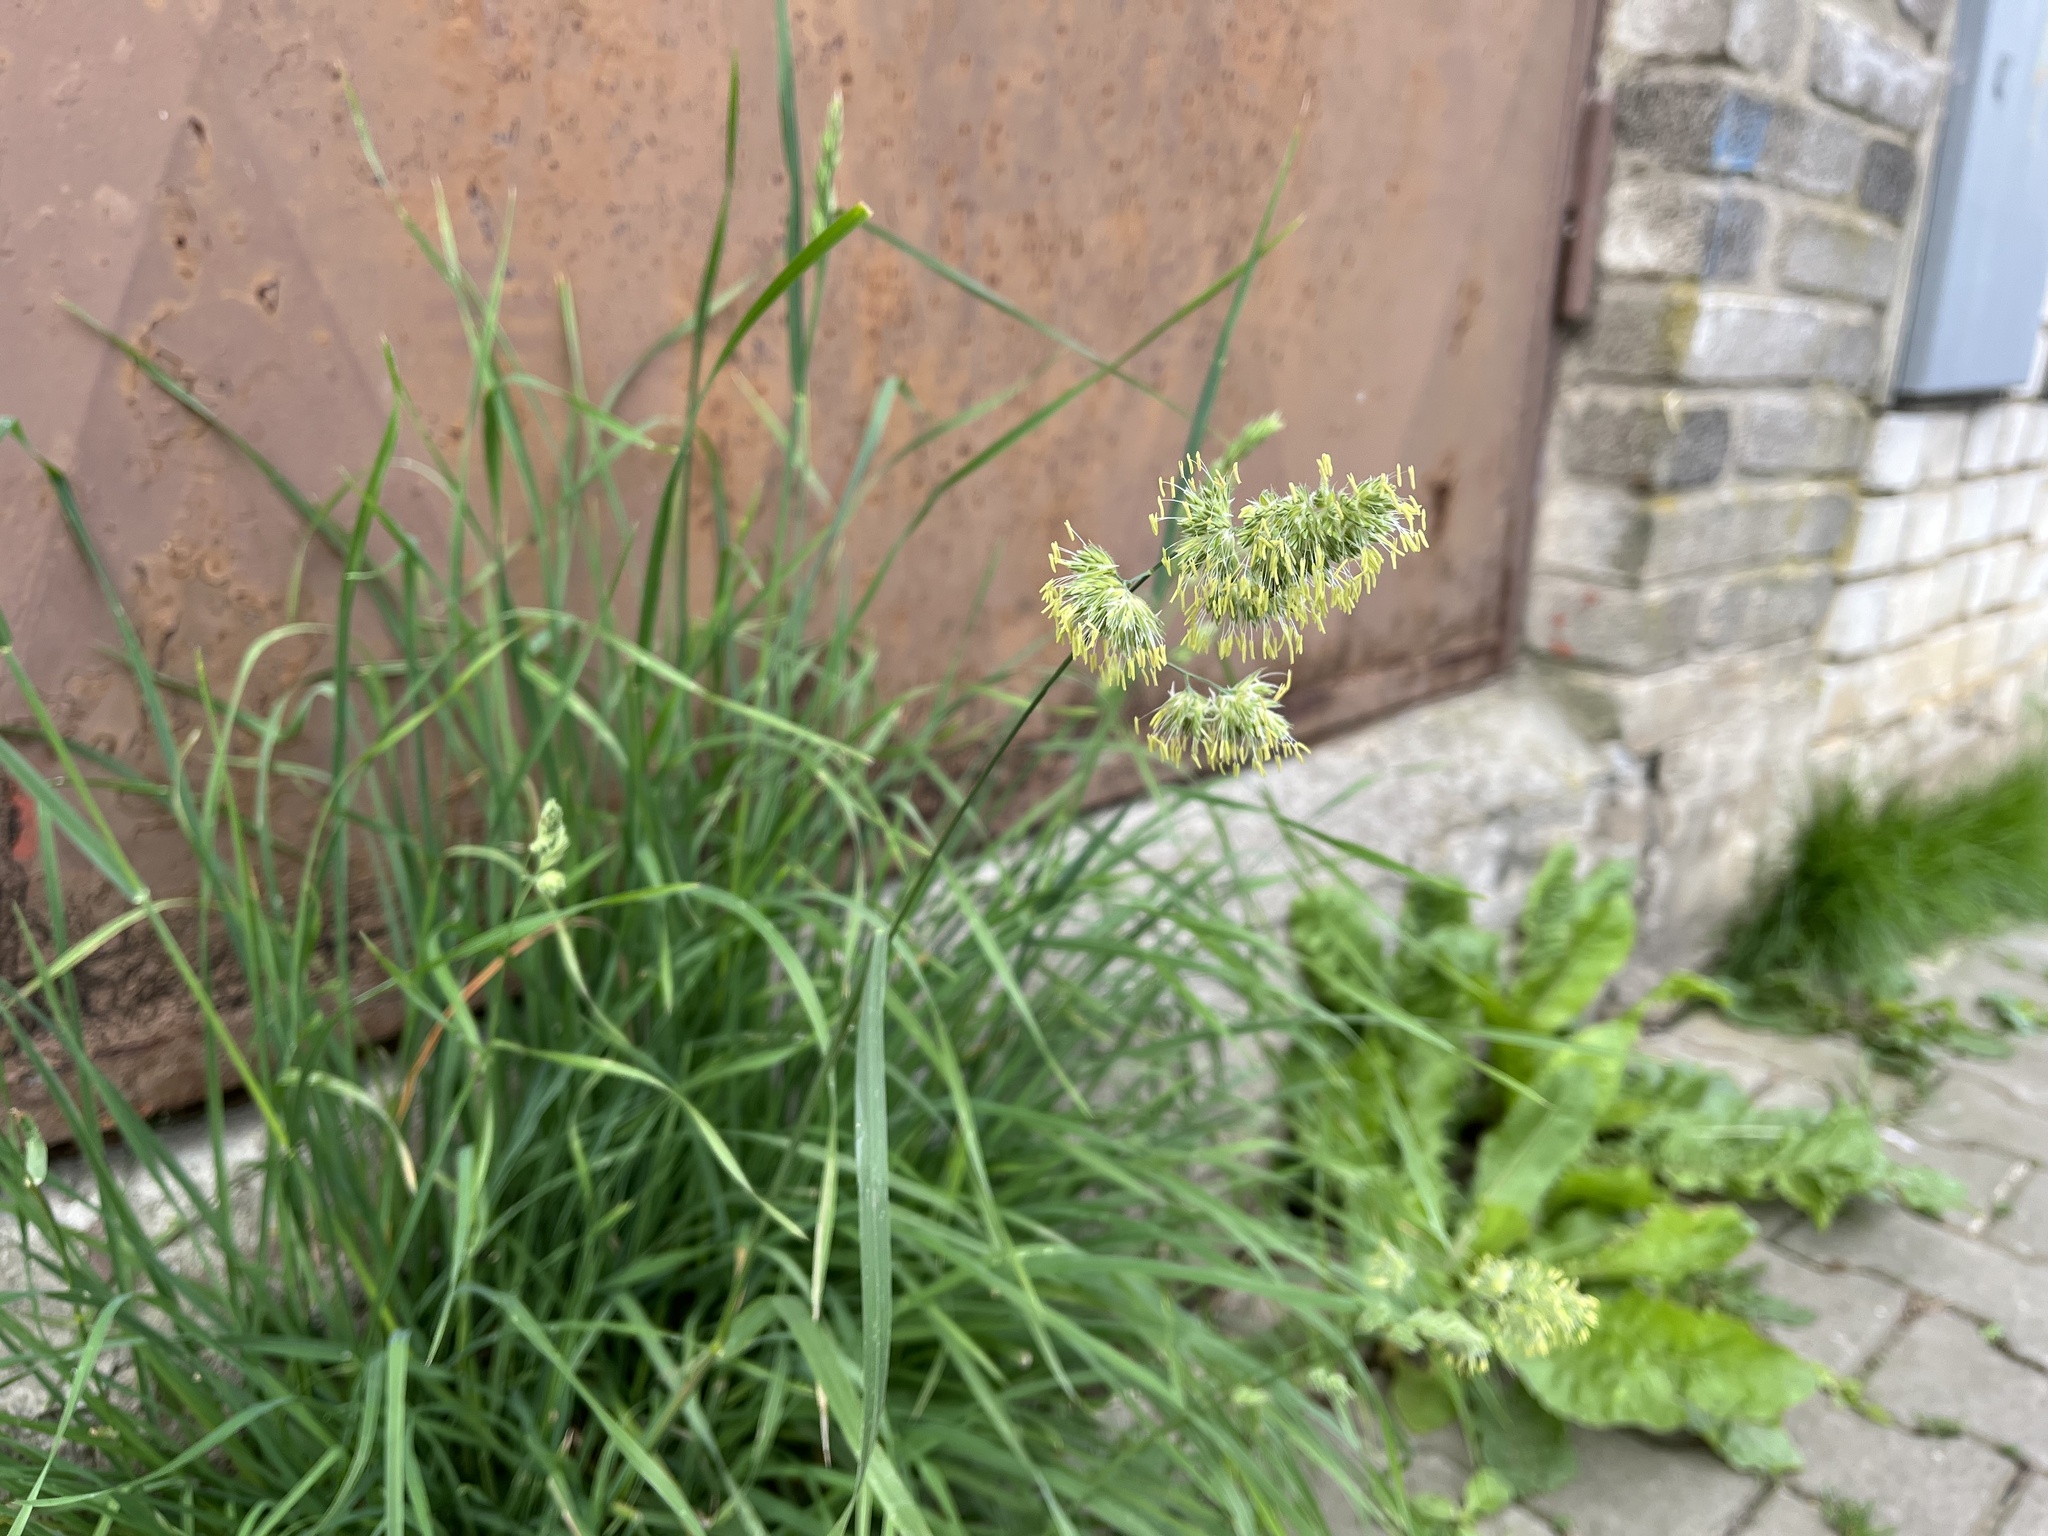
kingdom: Plantae
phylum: Tracheophyta
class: Liliopsida
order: Poales
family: Poaceae
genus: Dactylis
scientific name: Dactylis glomerata
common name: Orchardgrass
